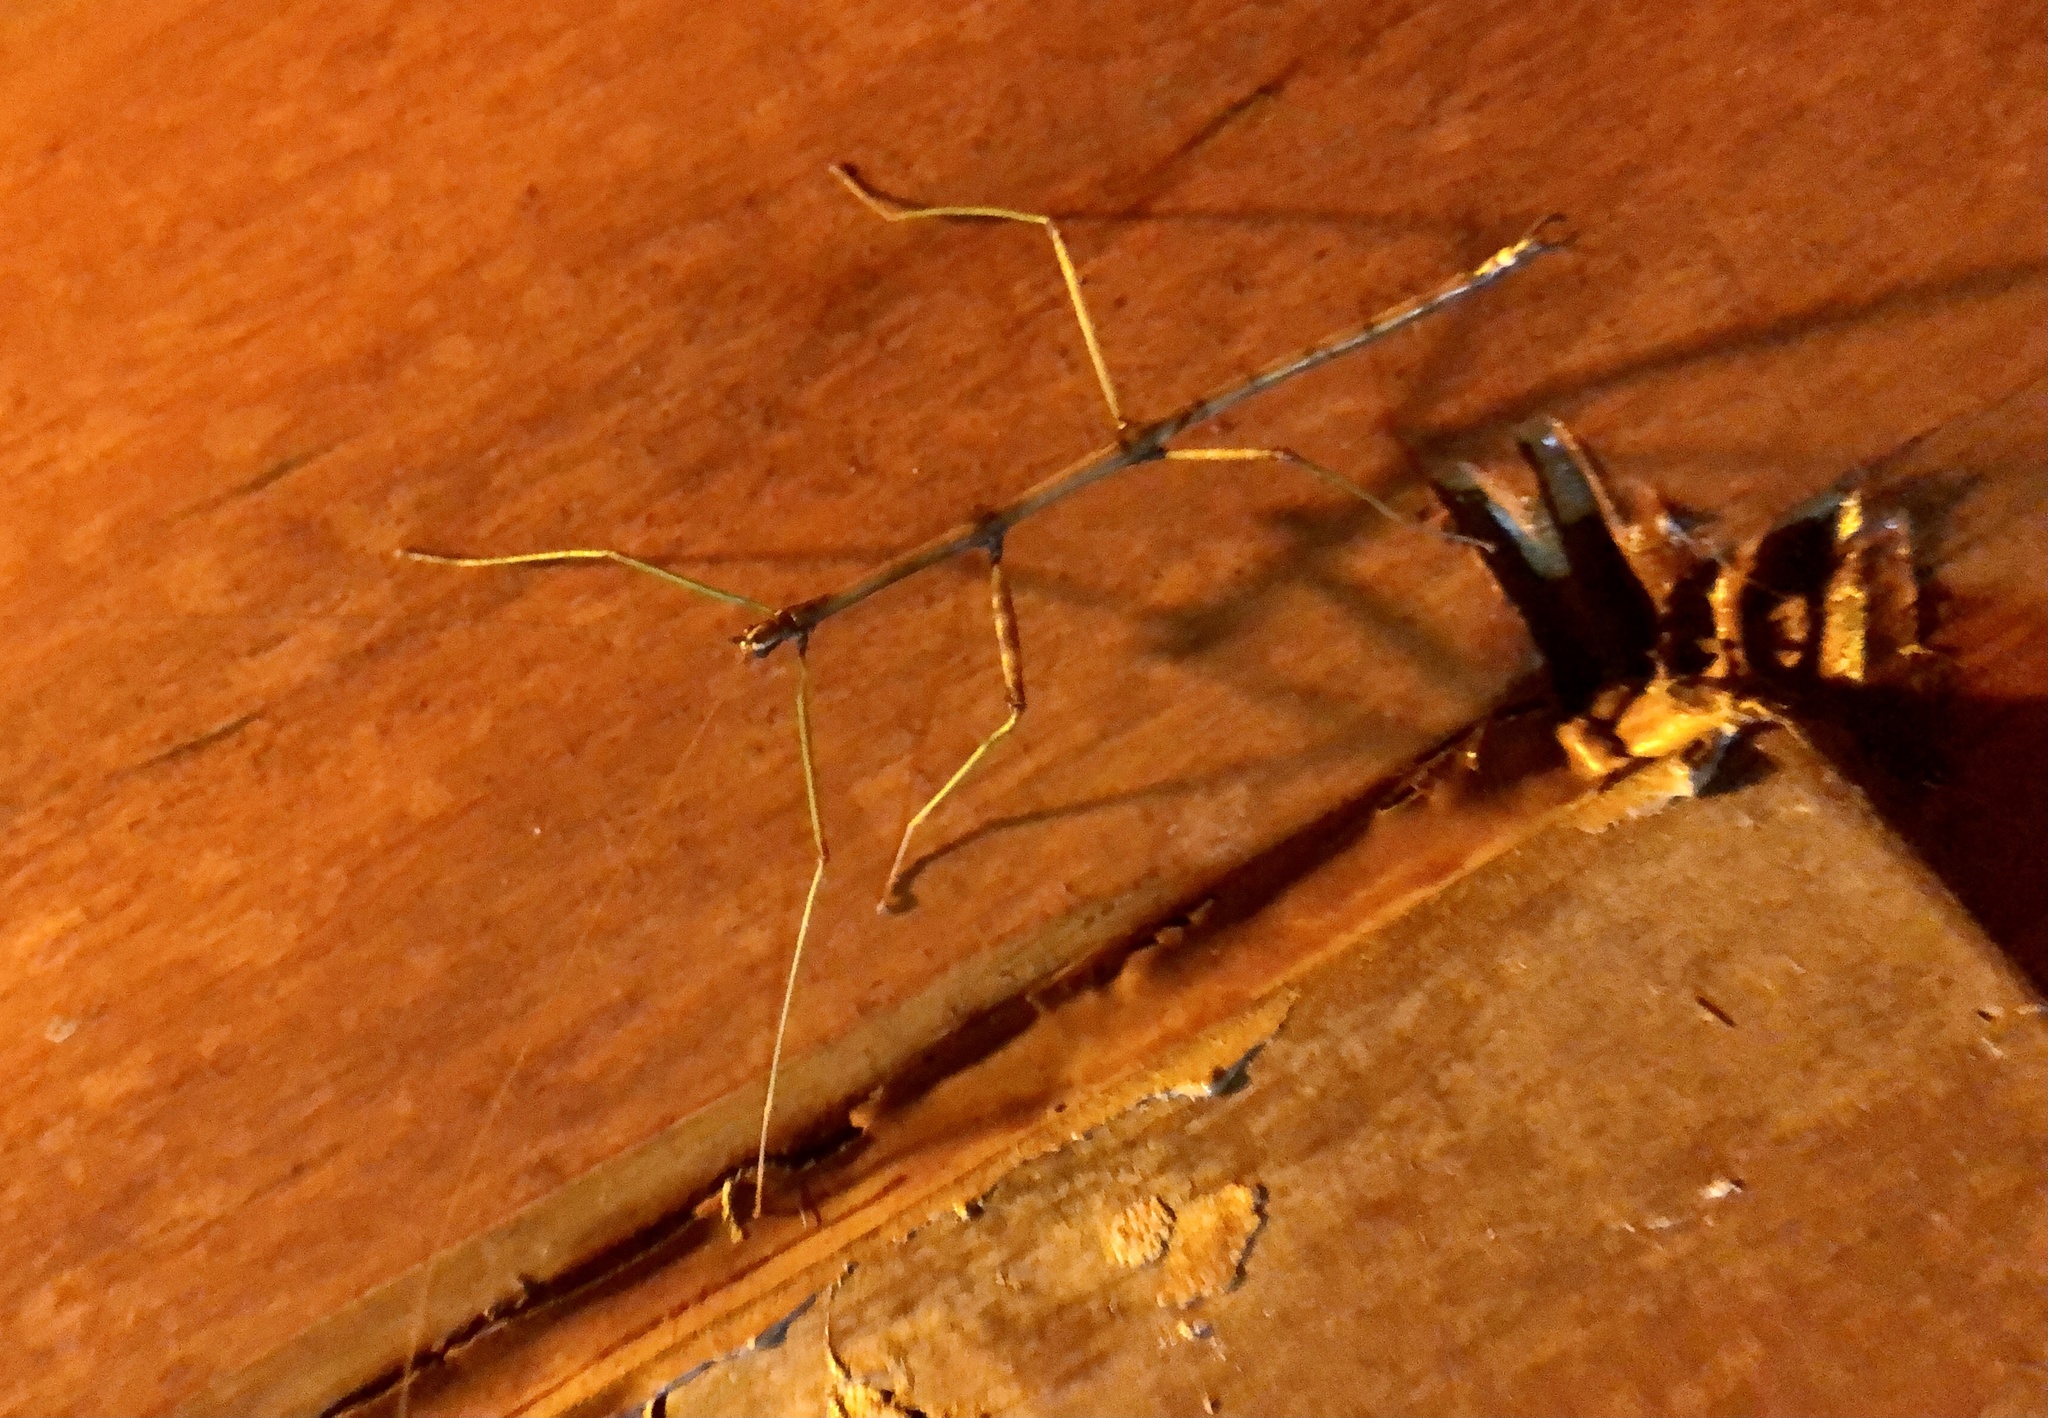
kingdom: Animalia
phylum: Arthropoda
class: Insecta
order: Phasmida
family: Diapheromeridae
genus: Diapheromera
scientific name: Diapheromera femorata
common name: Common american walkingstick
